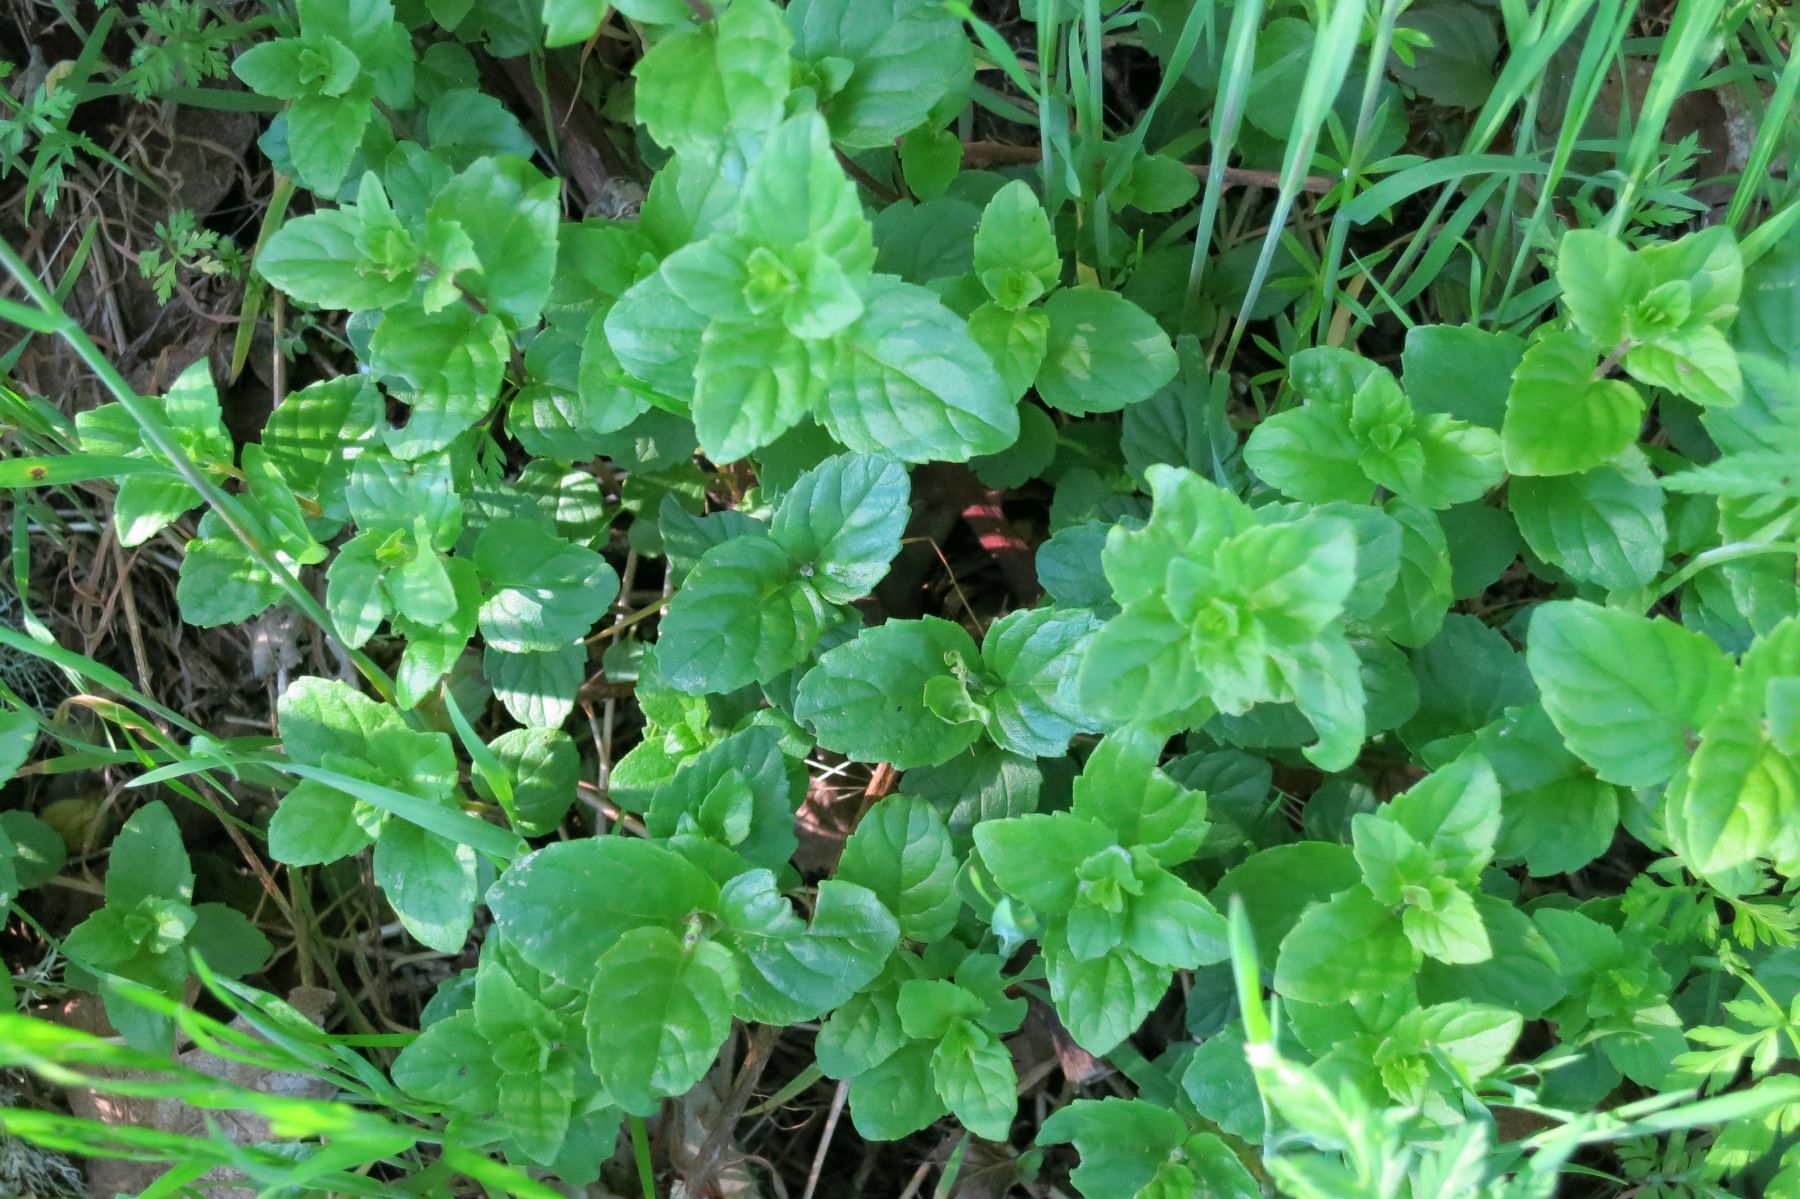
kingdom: Plantae
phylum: Tracheophyta
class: Magnoliopsida
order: Lamiales
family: Lamiaceae
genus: Micromeria
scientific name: Micromeria douglasii
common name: Yerba buena
